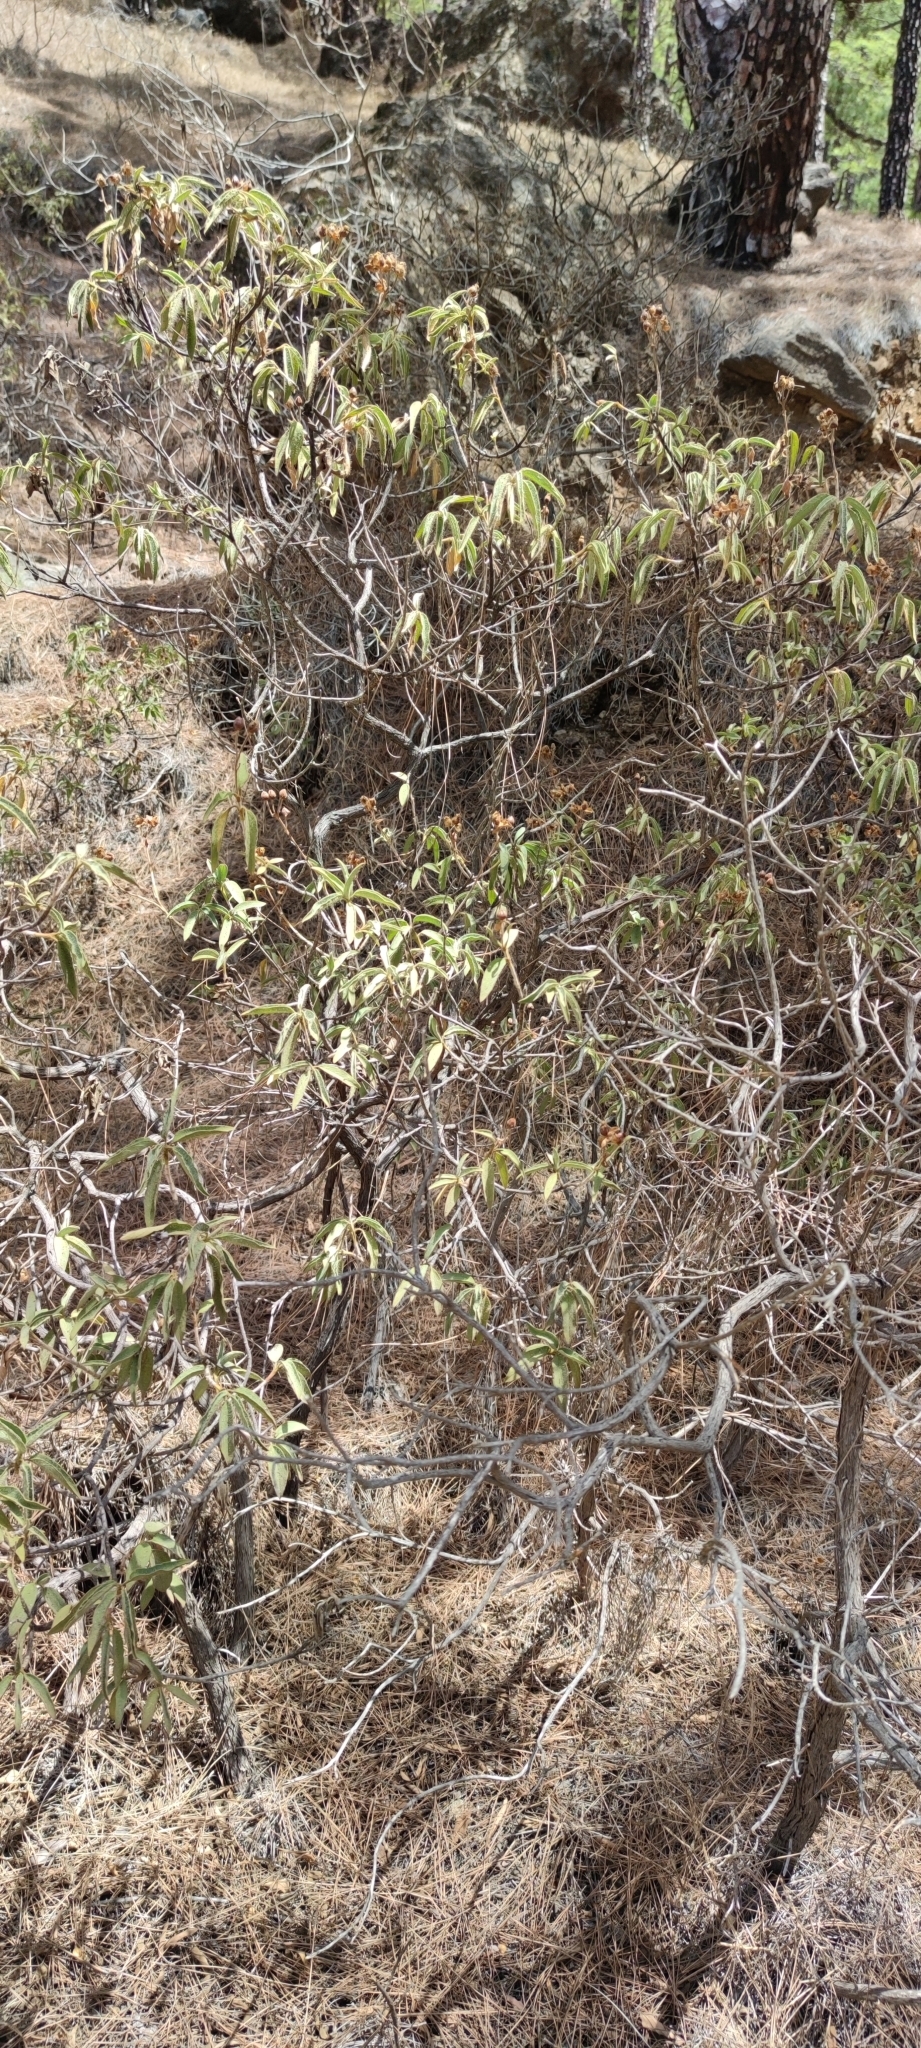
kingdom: Plantae
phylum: Tracheophyta
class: Magnoliopsida
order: Malvales
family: Cistaceae
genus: Cistus
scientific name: Cistus symphytifolius
